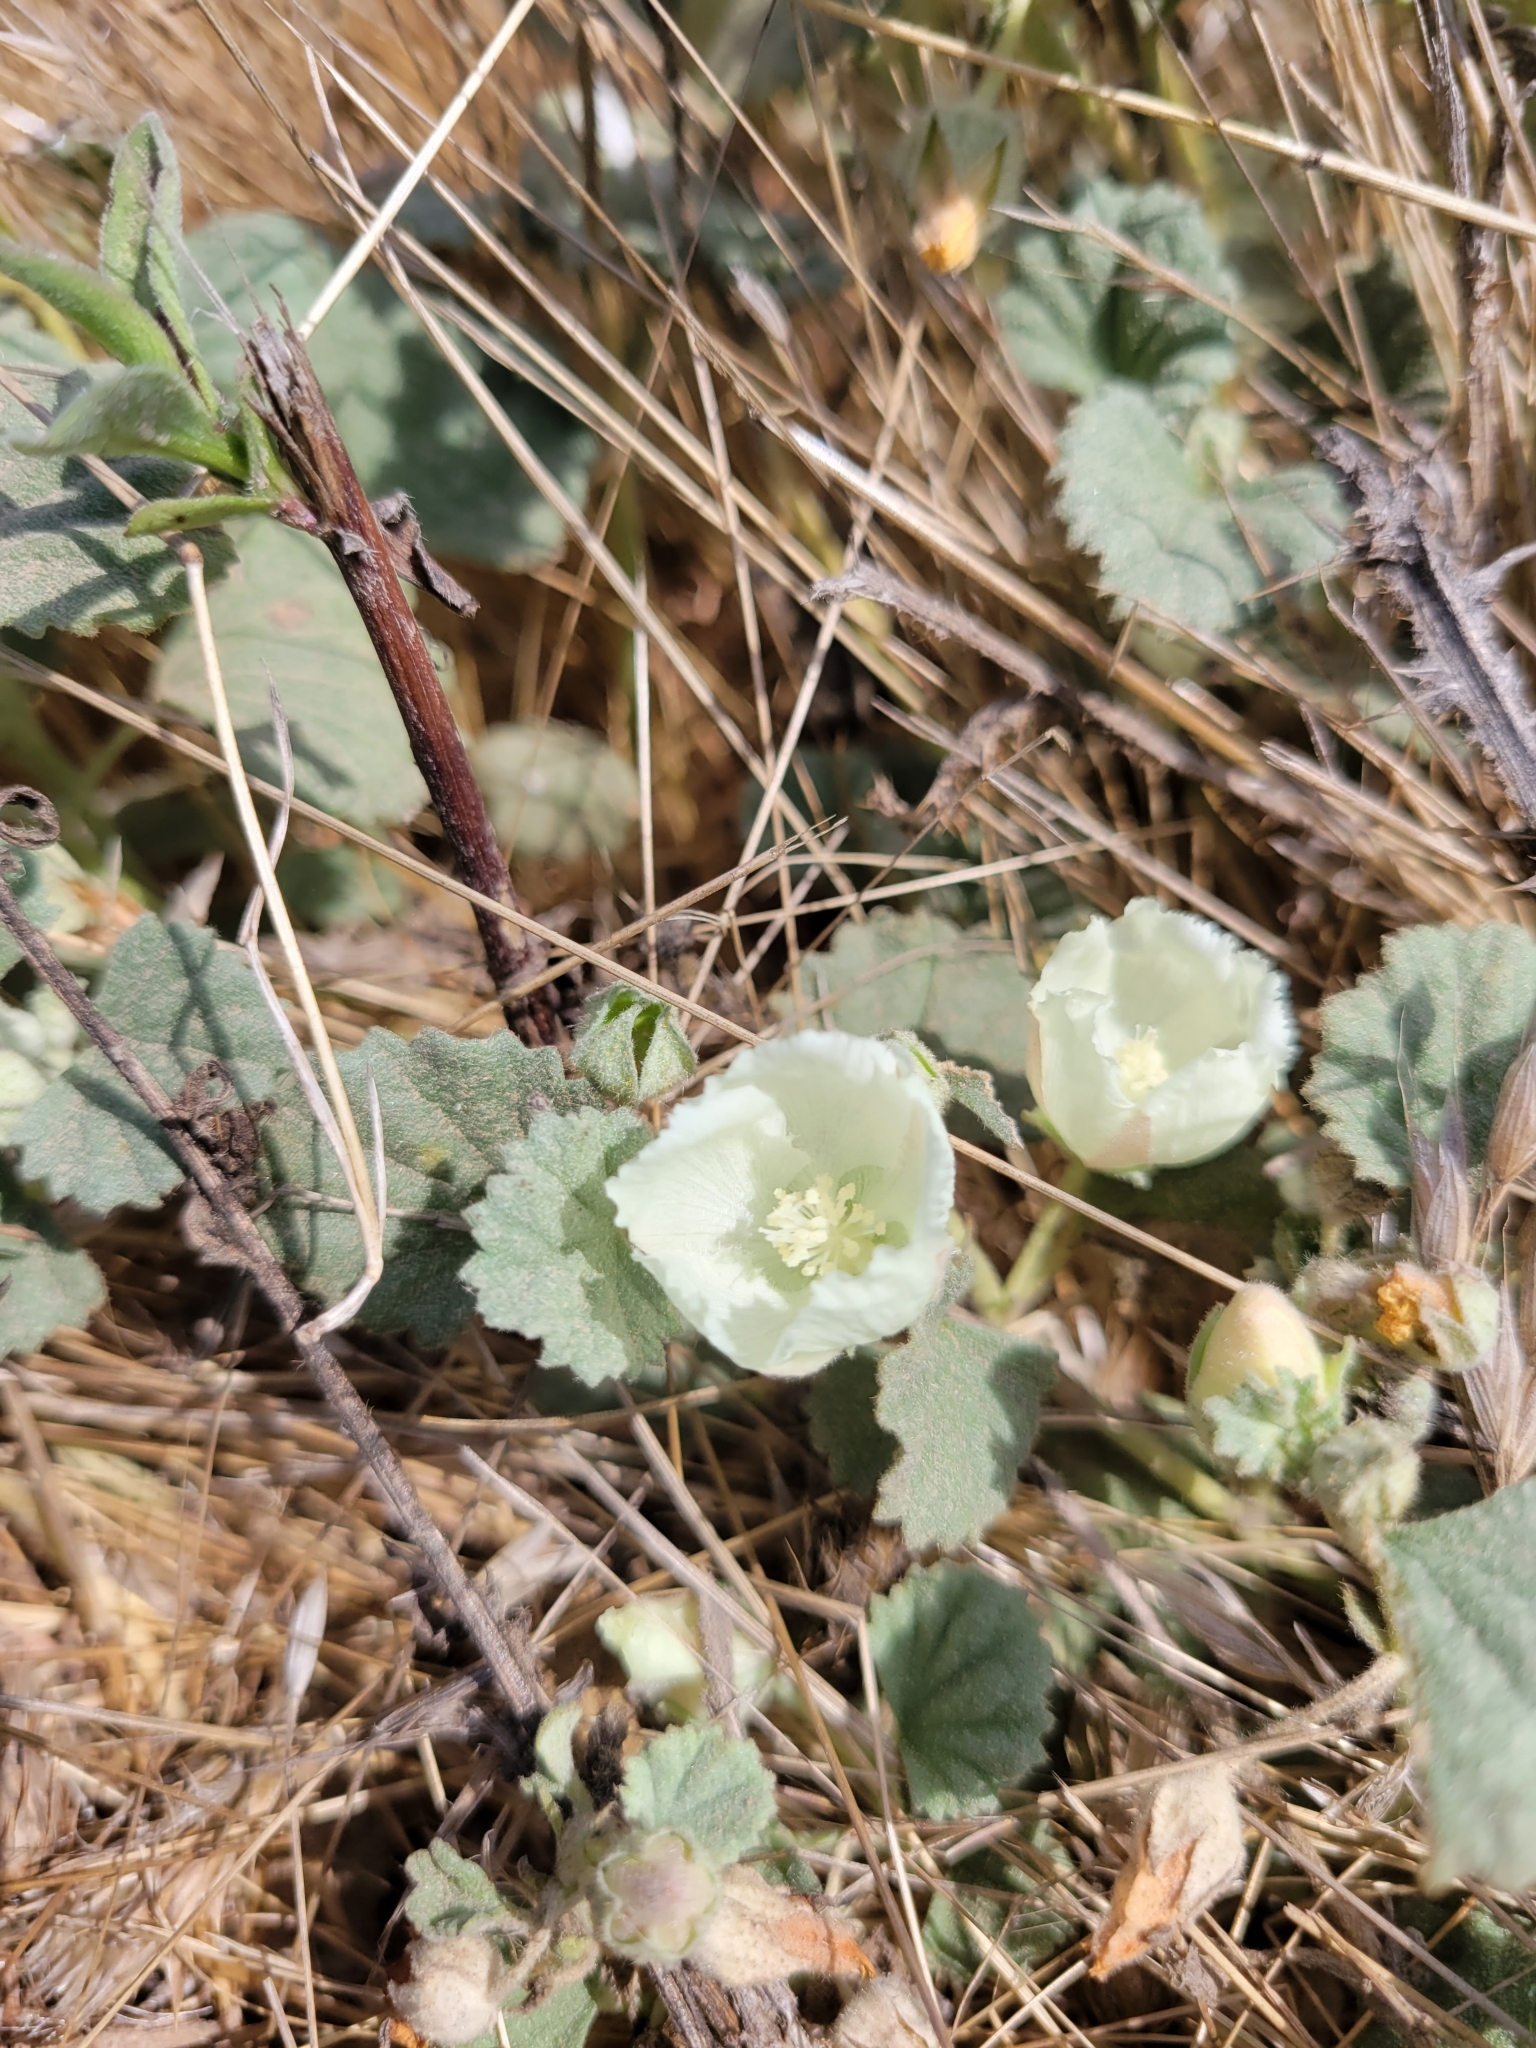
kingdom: Plantae
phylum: Tracheophyta
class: Magnoliopsida
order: Malvales
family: Malvaceae
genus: Malvella
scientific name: Malvella leprosa
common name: Alkali-mallow
